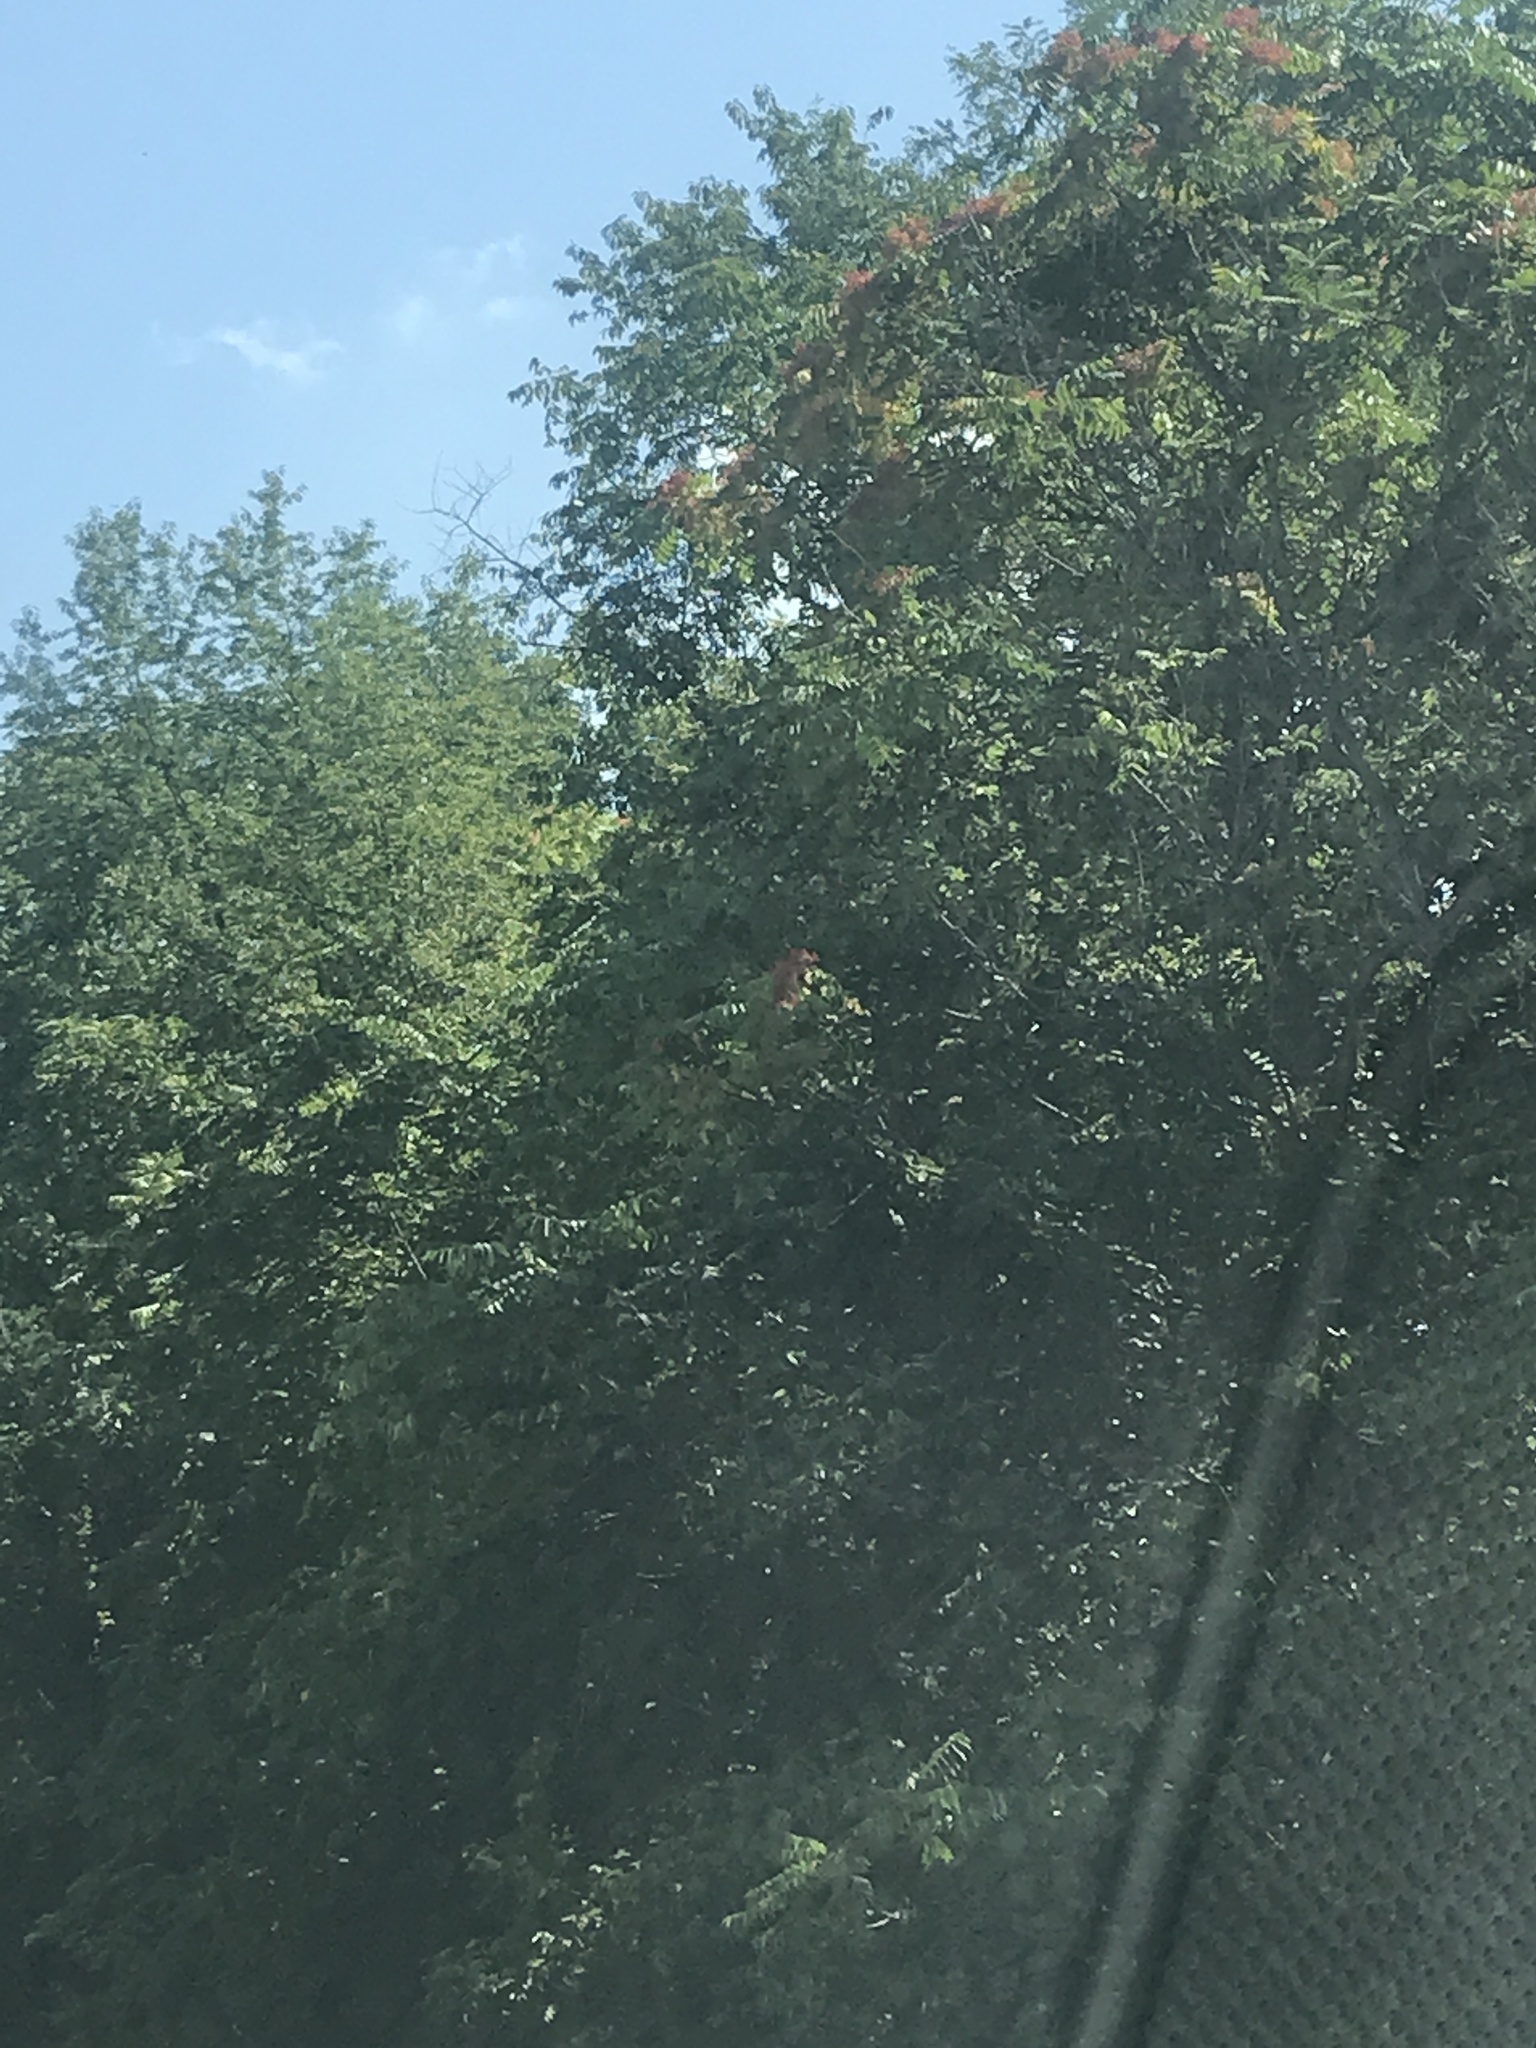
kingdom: Plantae
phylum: Tracheophyta
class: Magnoliopsida
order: Sapindales
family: Simaroubaceae
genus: Ailanthus
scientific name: Ailanthus altissima
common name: Tree-of-heaven
